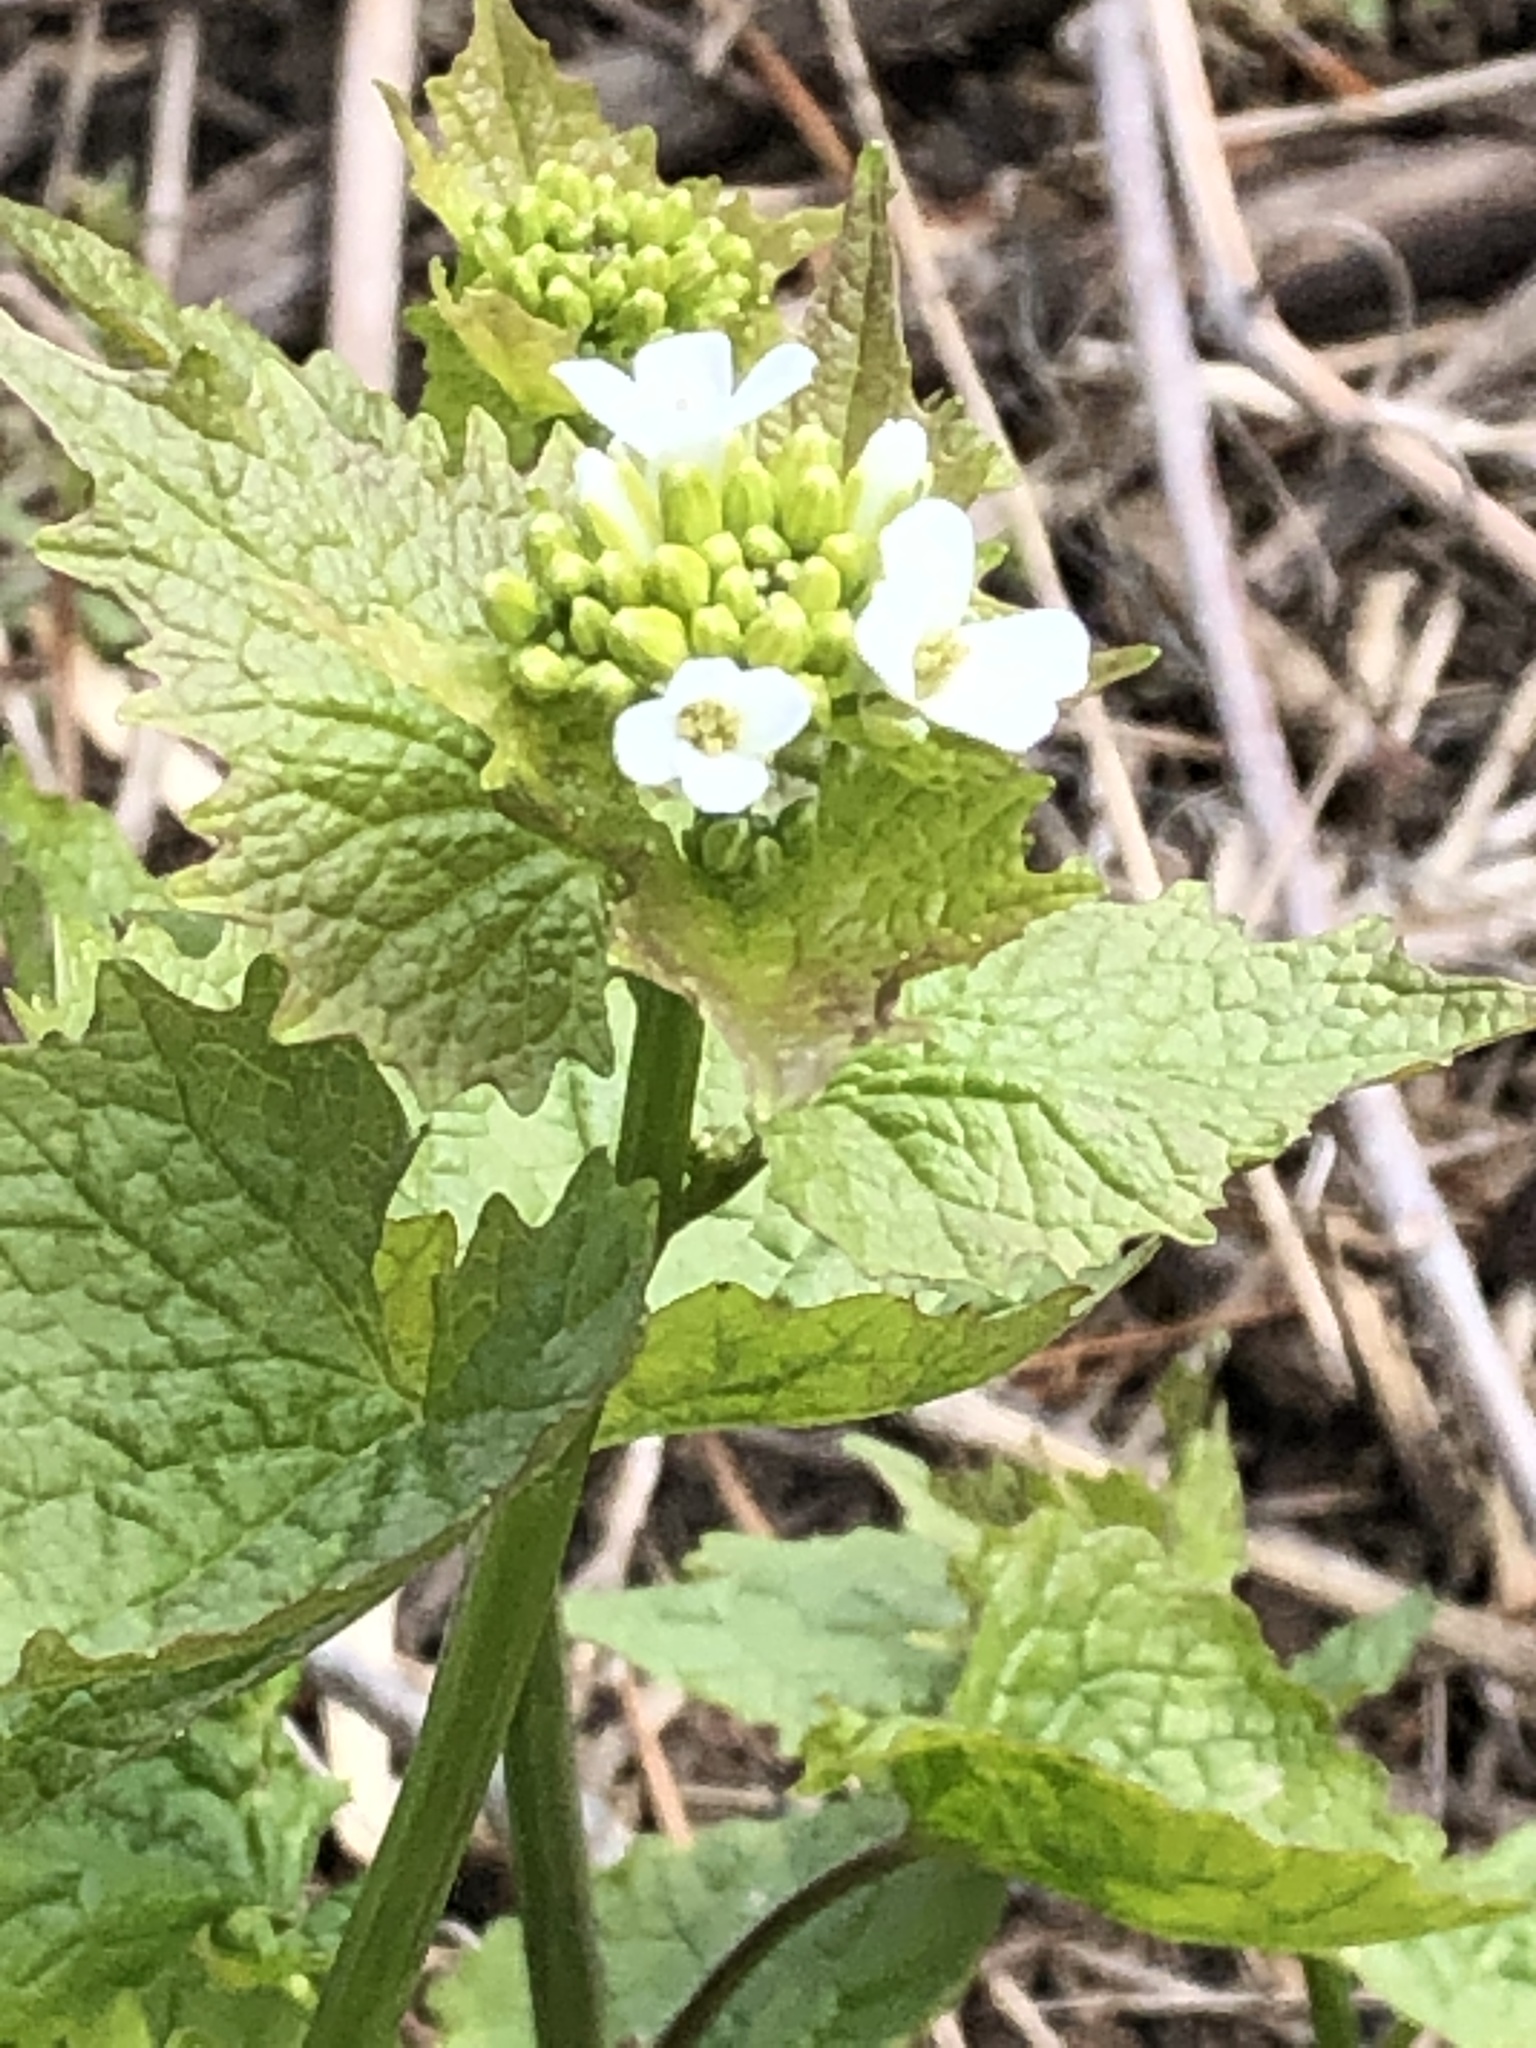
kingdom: Plantae
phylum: Tracheophyta
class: Magnoliopsida
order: Brassicales
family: Brassicaceae
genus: Alliaria
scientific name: Alliaria petiolata
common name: Garlic mustard
